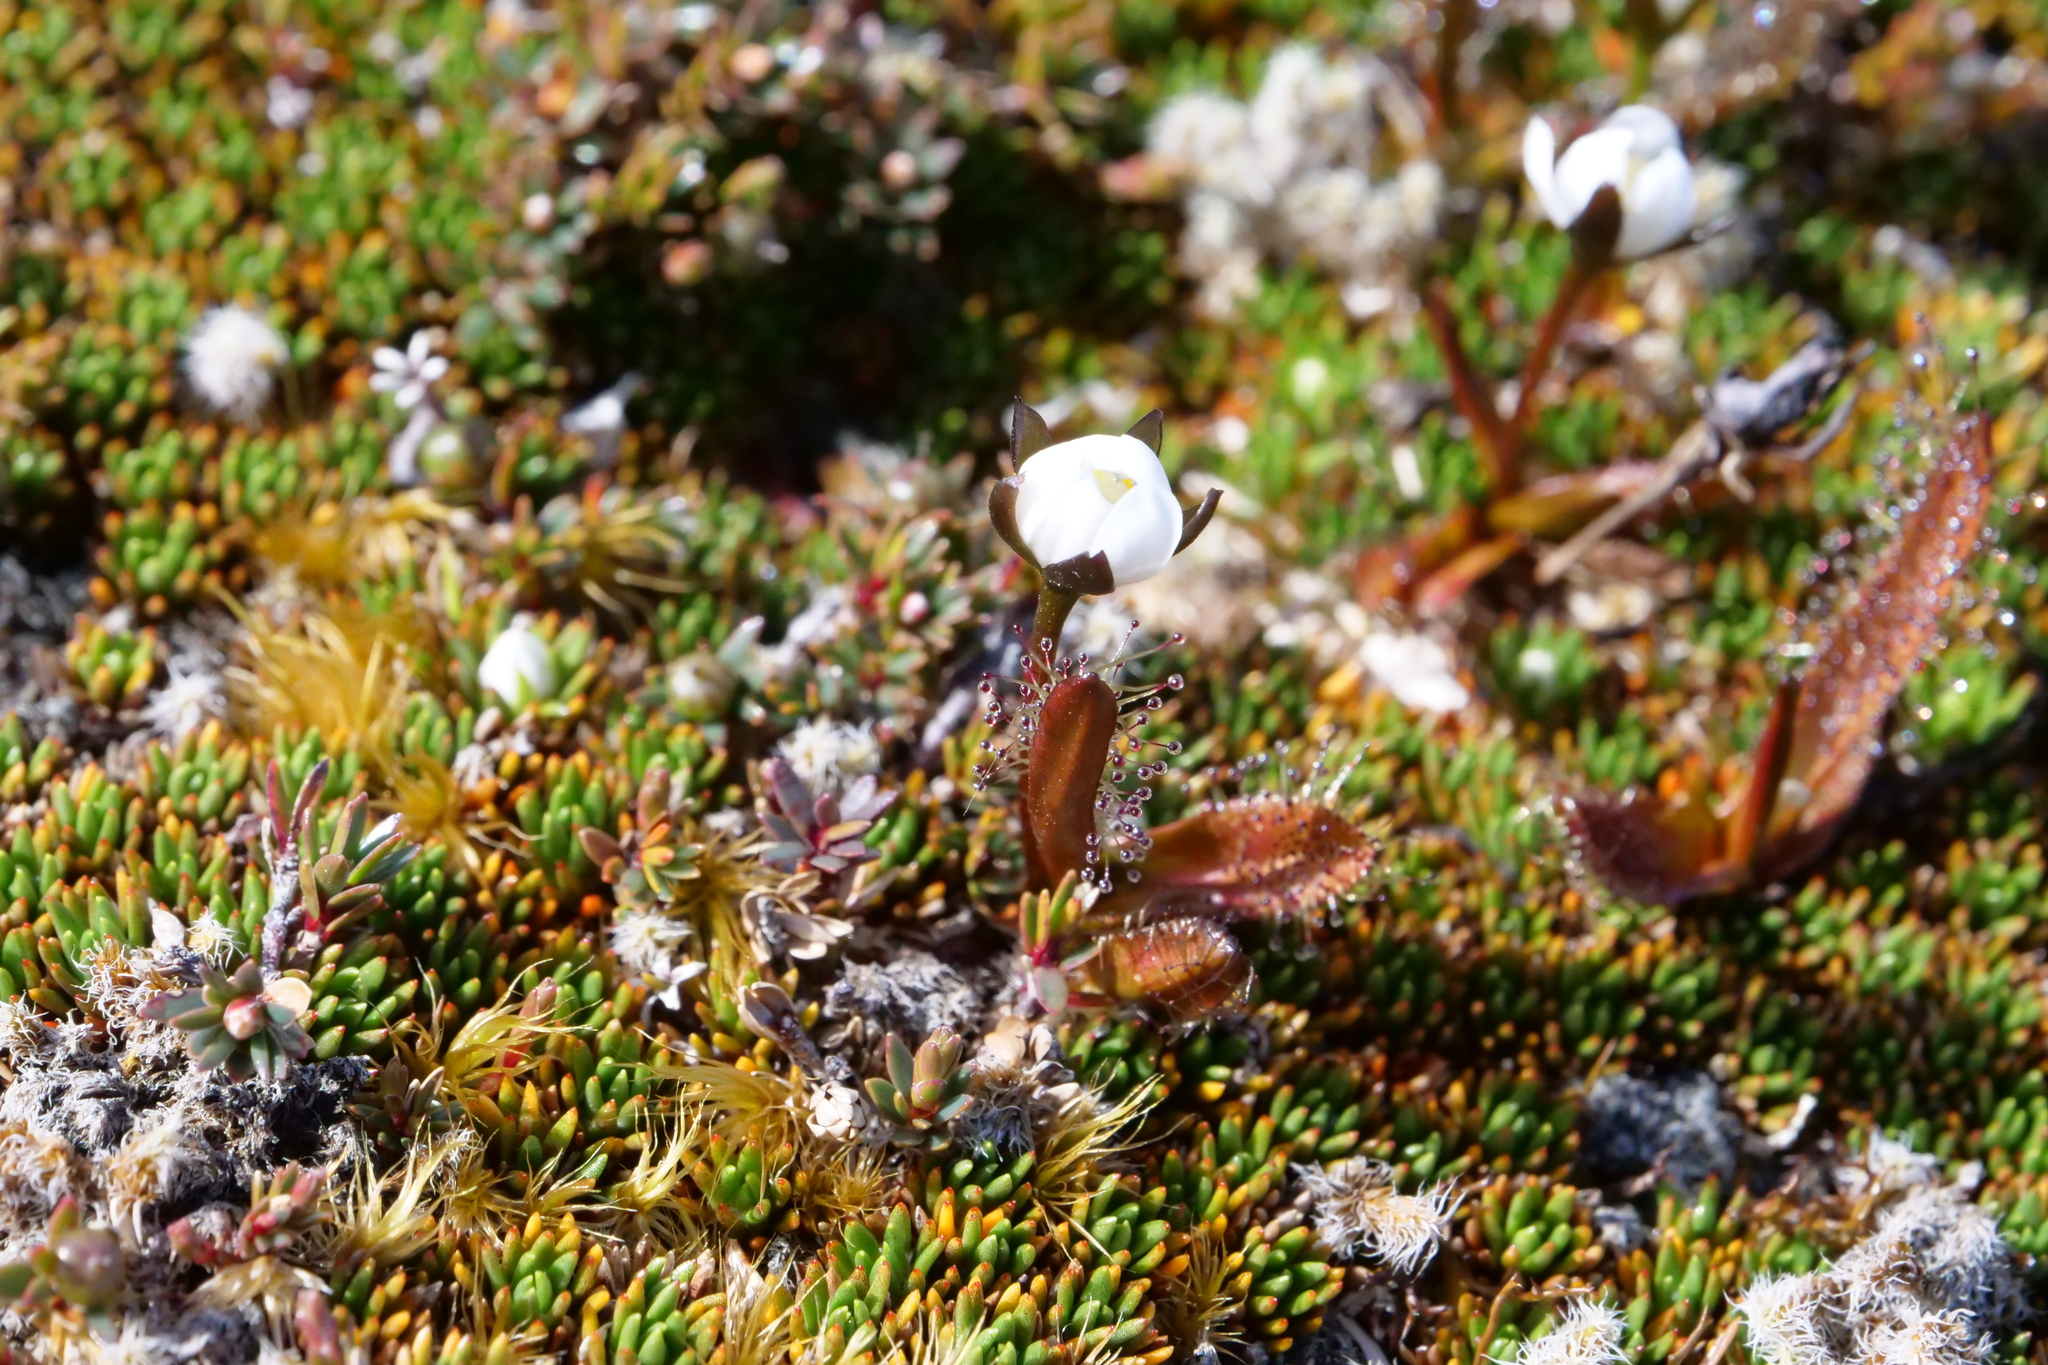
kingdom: Plantae
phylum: Tracheophyta
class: Magnoliopsida
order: Caryophyllales
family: Droseraceae
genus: Drosera
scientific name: Drosera arcturi
